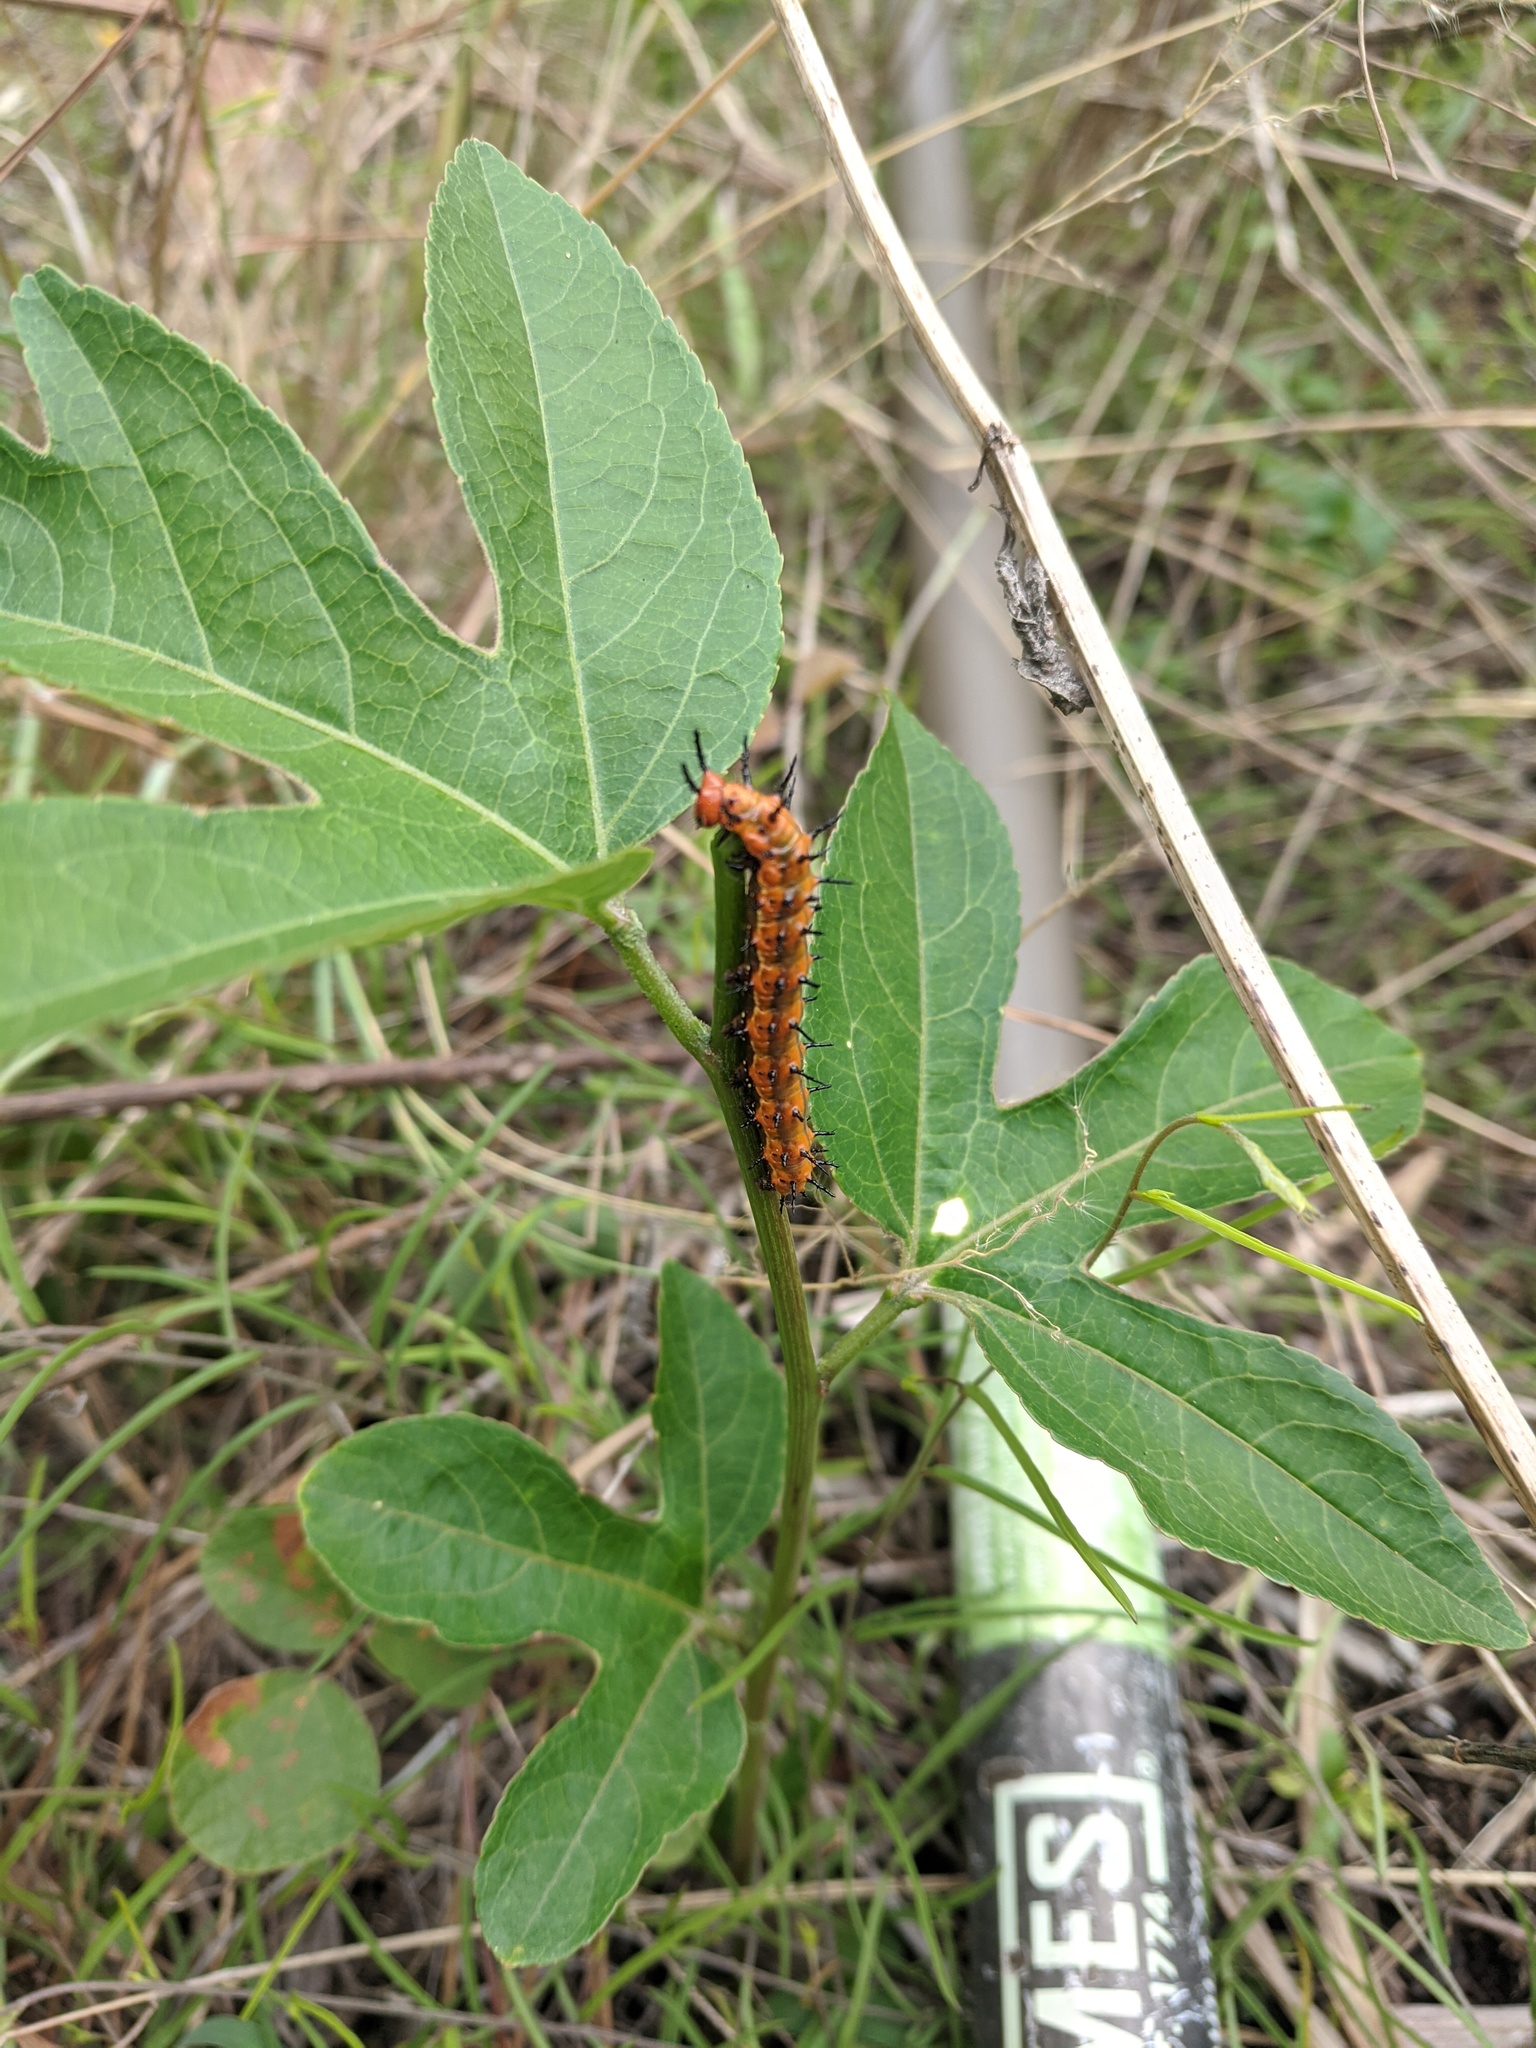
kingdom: Animalia
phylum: Arthropoda
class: Insecta
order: Lepidoptera
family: Nymphalidae
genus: Dione
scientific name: Dione vanillae
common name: Gulf fritillary
